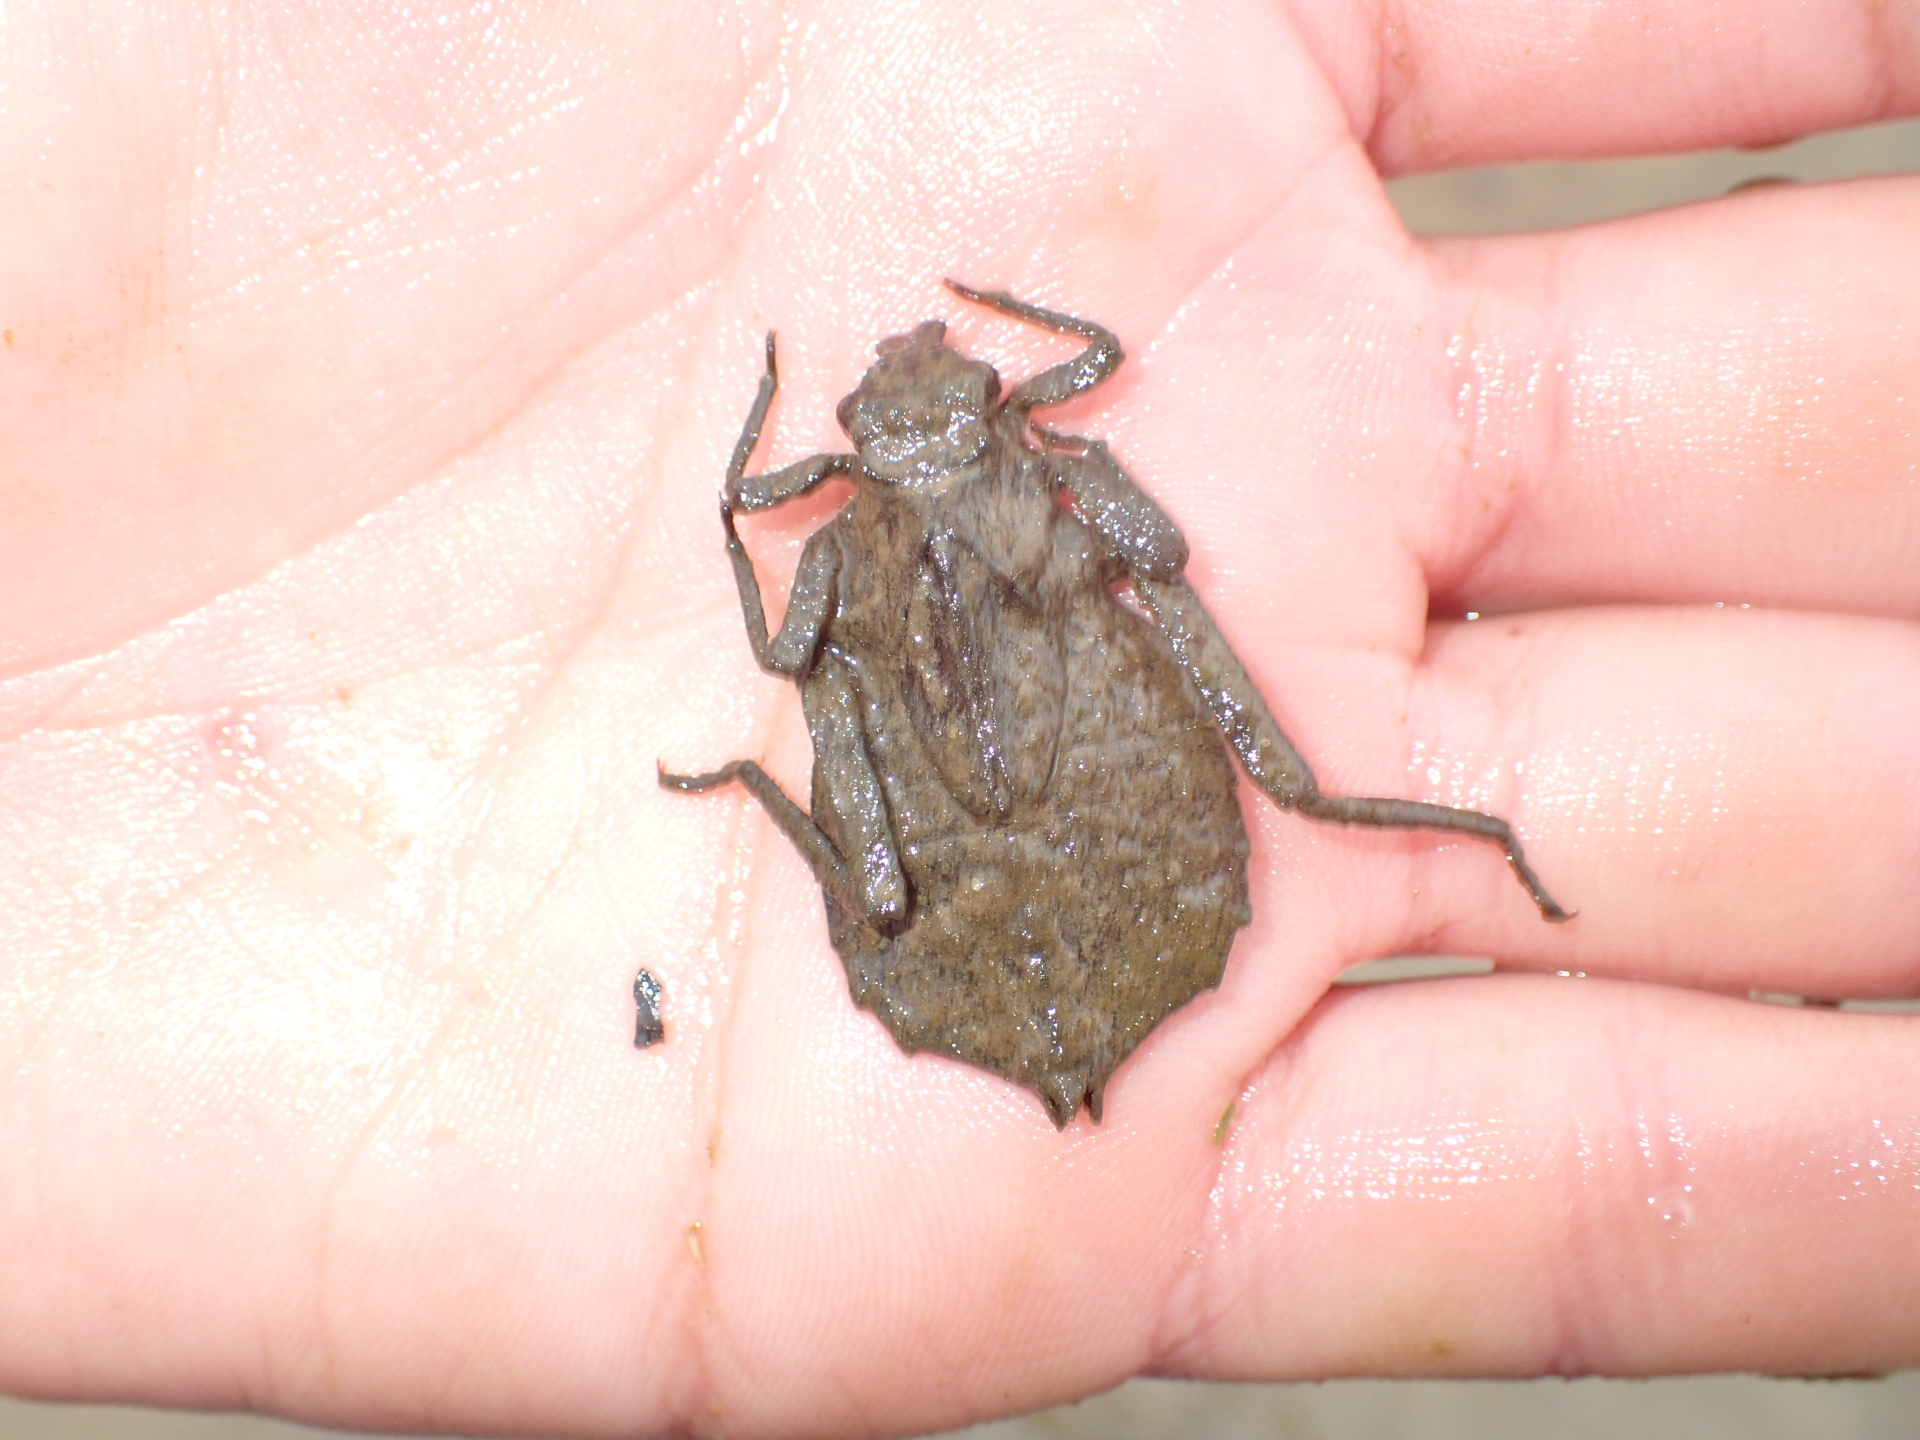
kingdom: Animalia
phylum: Arthropoda
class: Insecta
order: Odonata
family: Gomphidae
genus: Hagenius
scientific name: Hagenius brevistylus
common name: Dragonhunter
